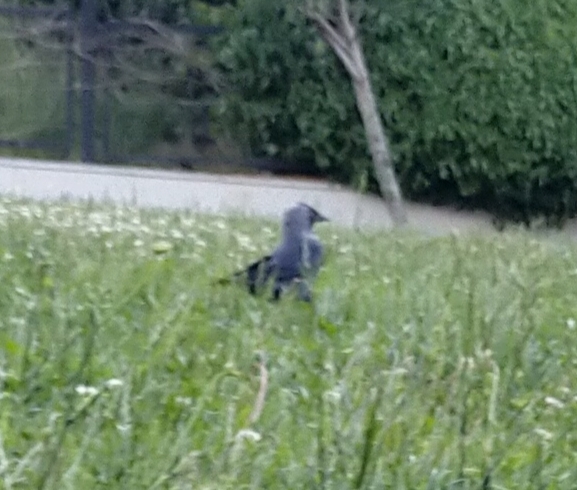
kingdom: Animalia
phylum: Chordata
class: Aves
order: Passeriformes
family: Corvidae
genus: Coloeus
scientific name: Coloeus monedula
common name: Western jackdaw
